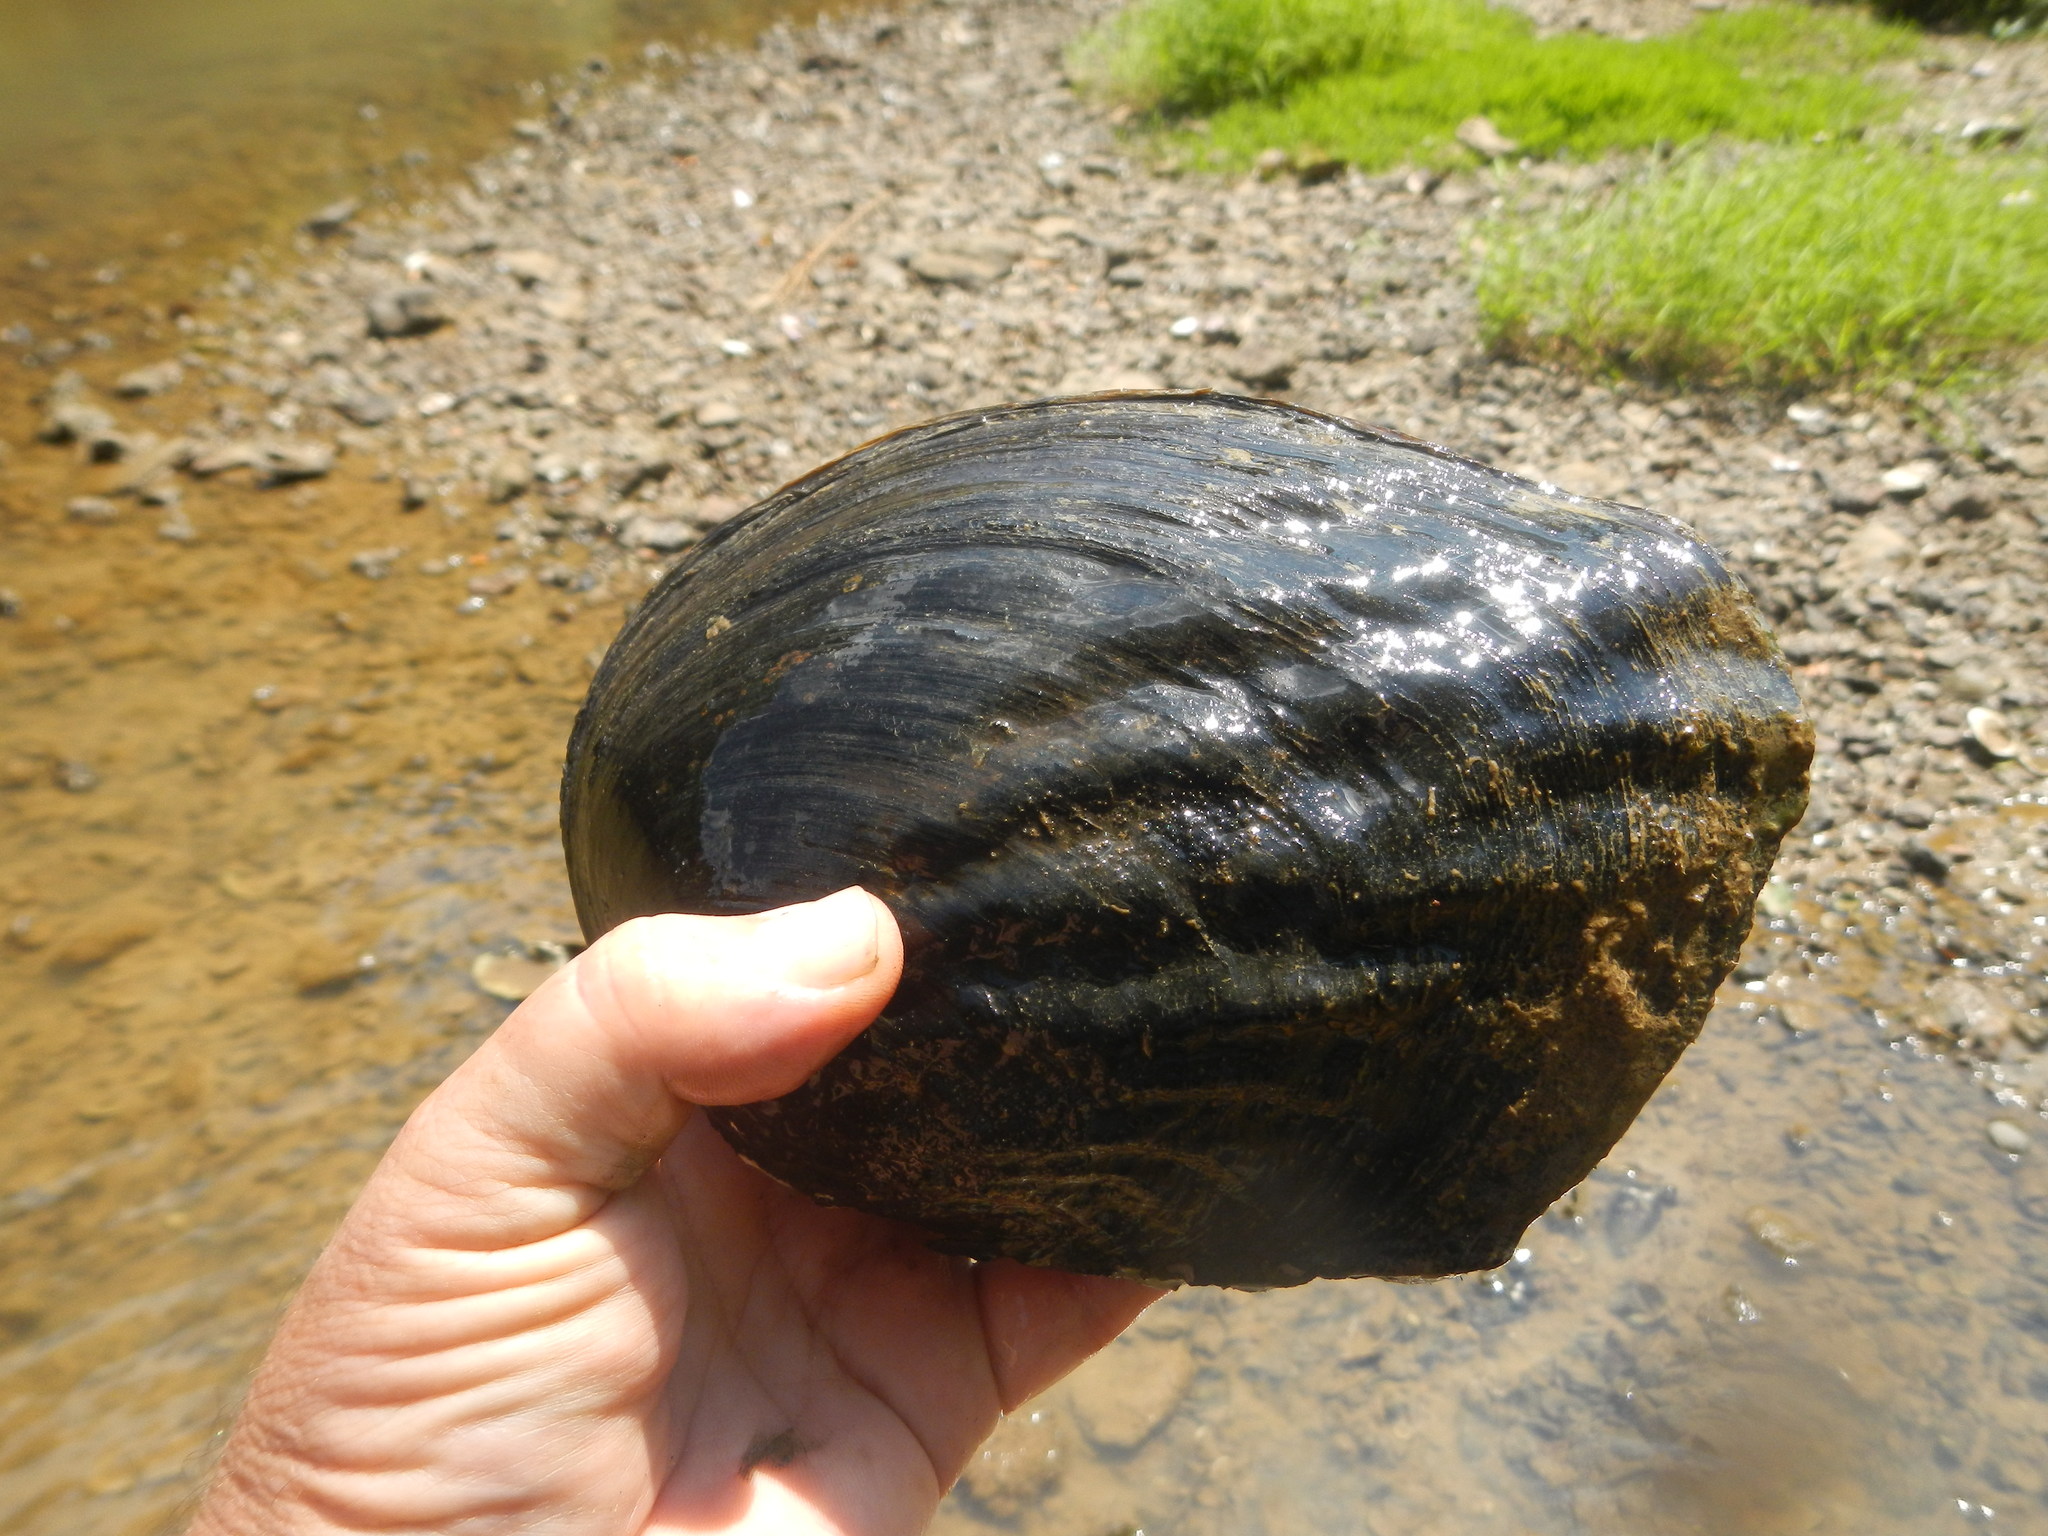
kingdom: Animalia
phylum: Mollusca
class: Bivalvia
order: Unionida
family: Unionidae
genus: Megalonaias
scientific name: Megalonaias nervosa
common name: Washboard
